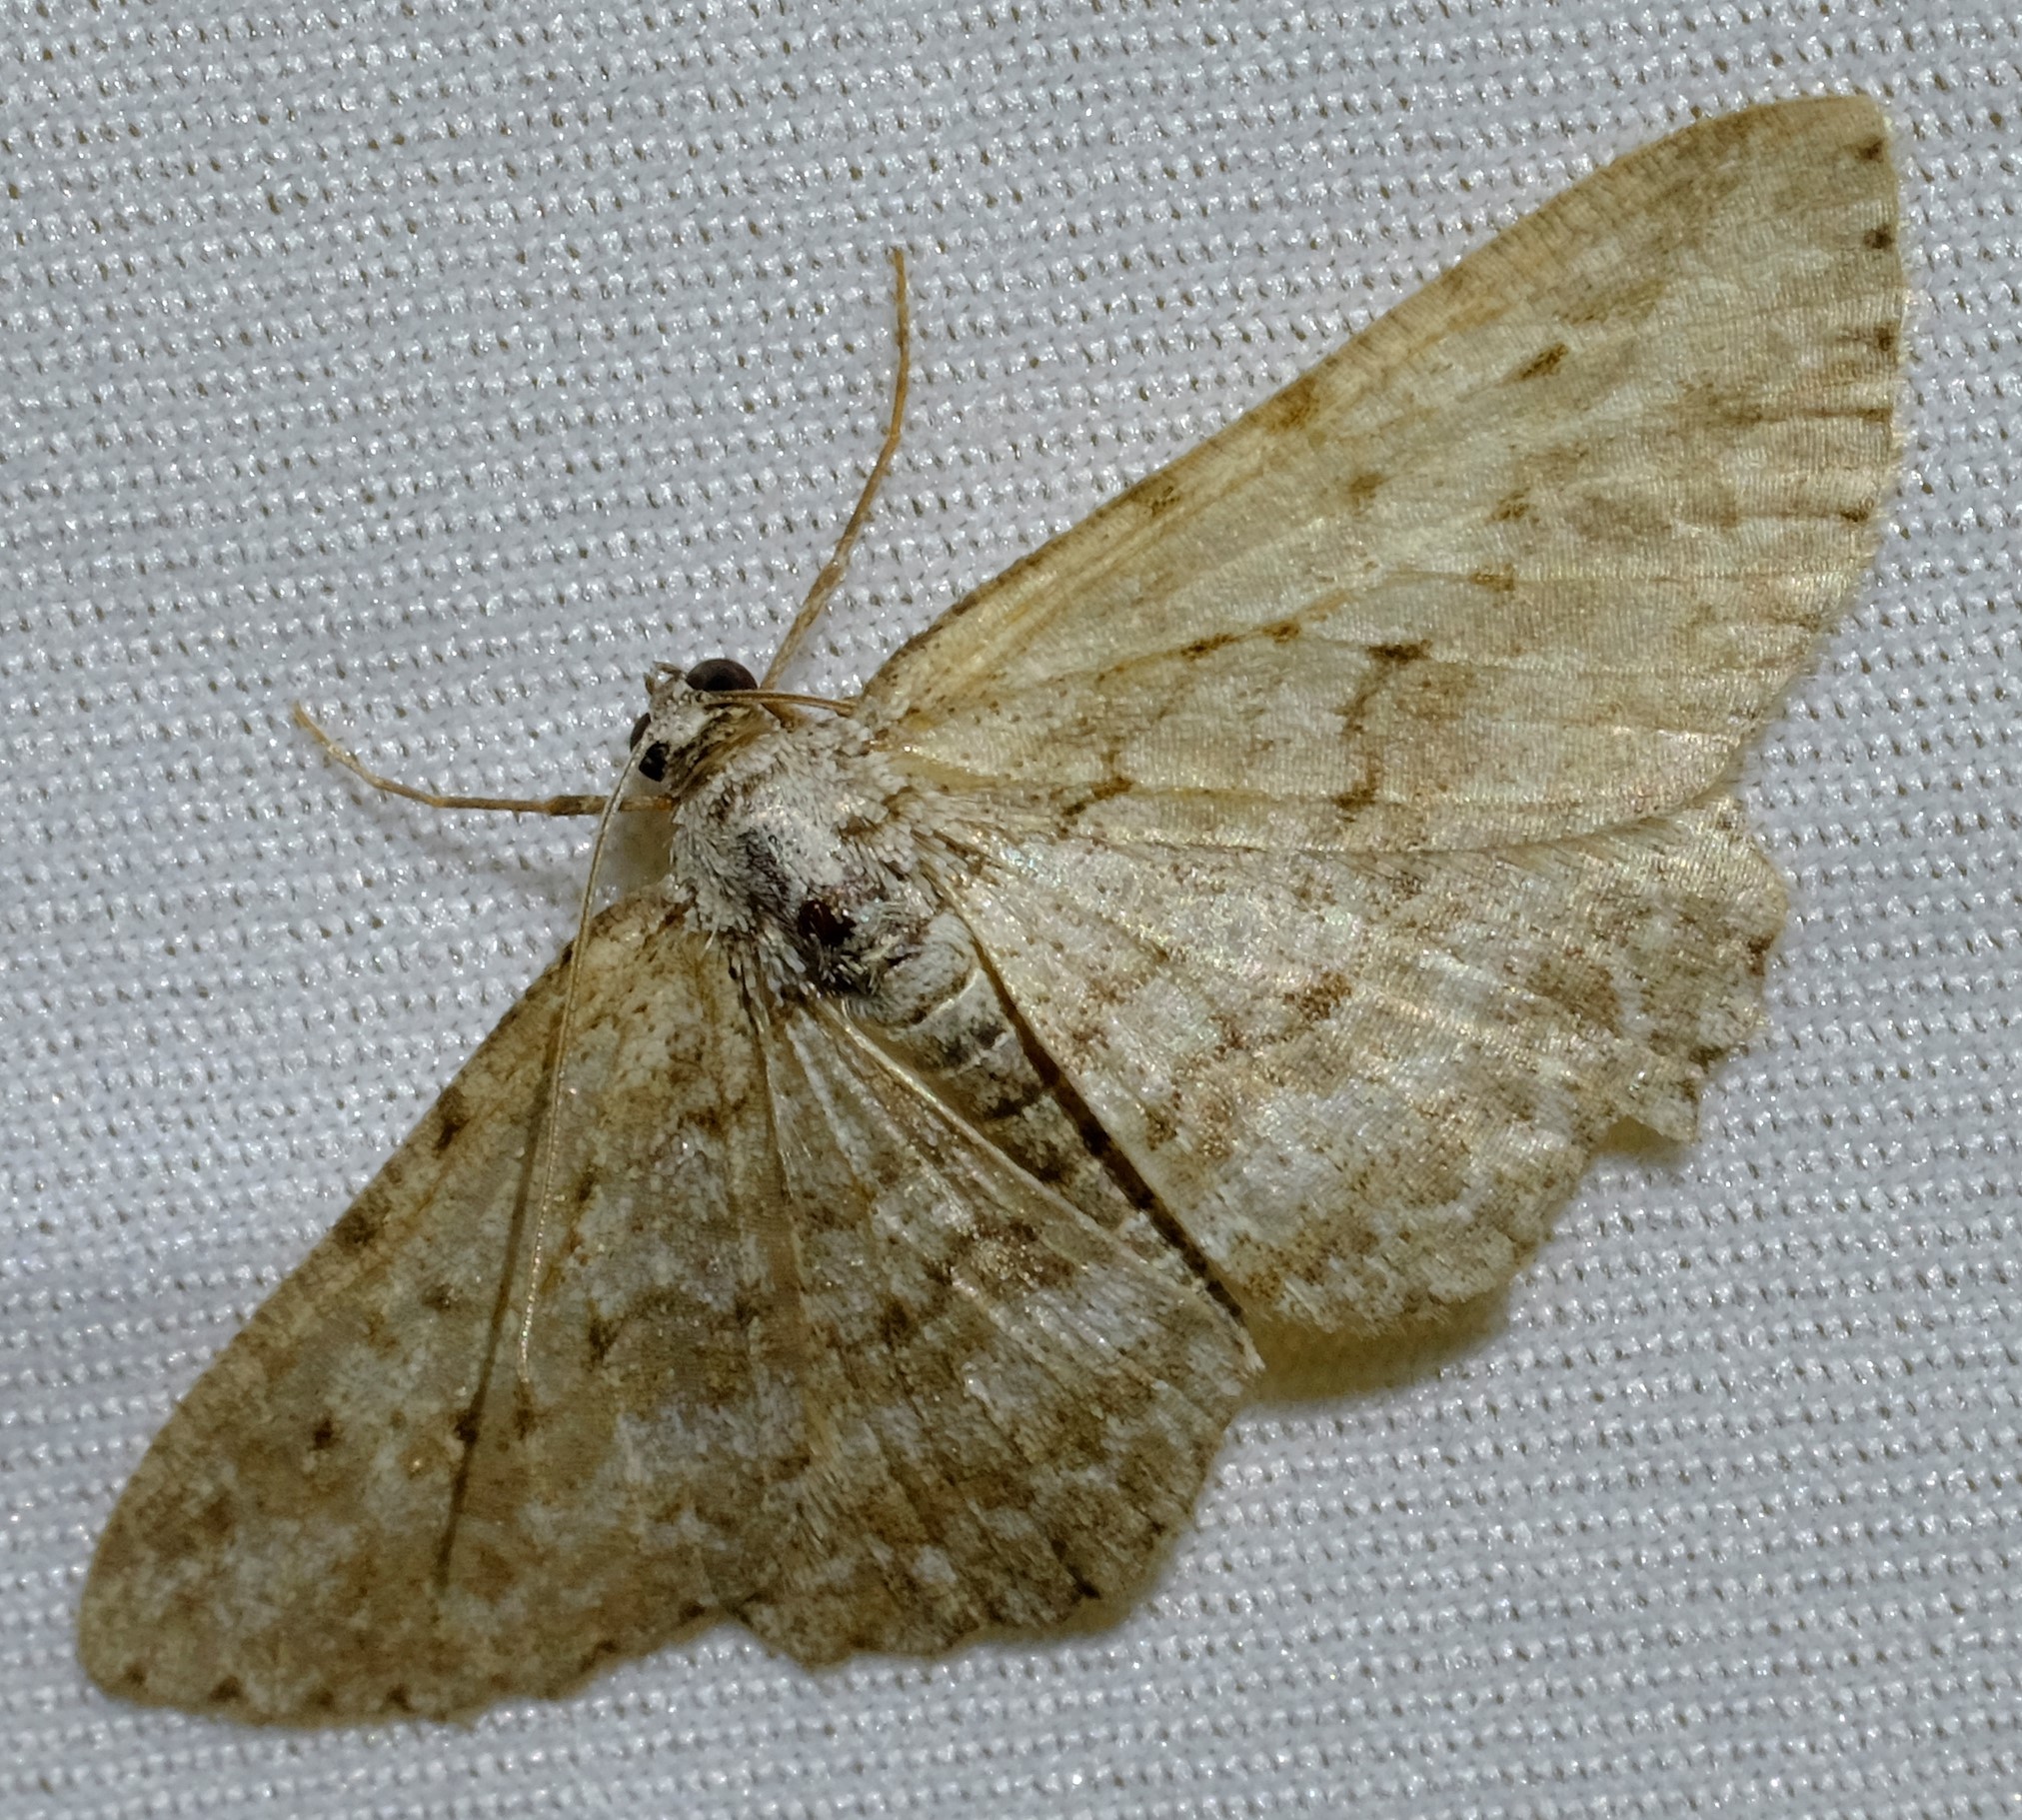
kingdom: Animalia
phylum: Arthropoda
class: Insecta
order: Lepidoptera
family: Geometridae
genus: Psilosticha
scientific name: Psilosticha absorpta
